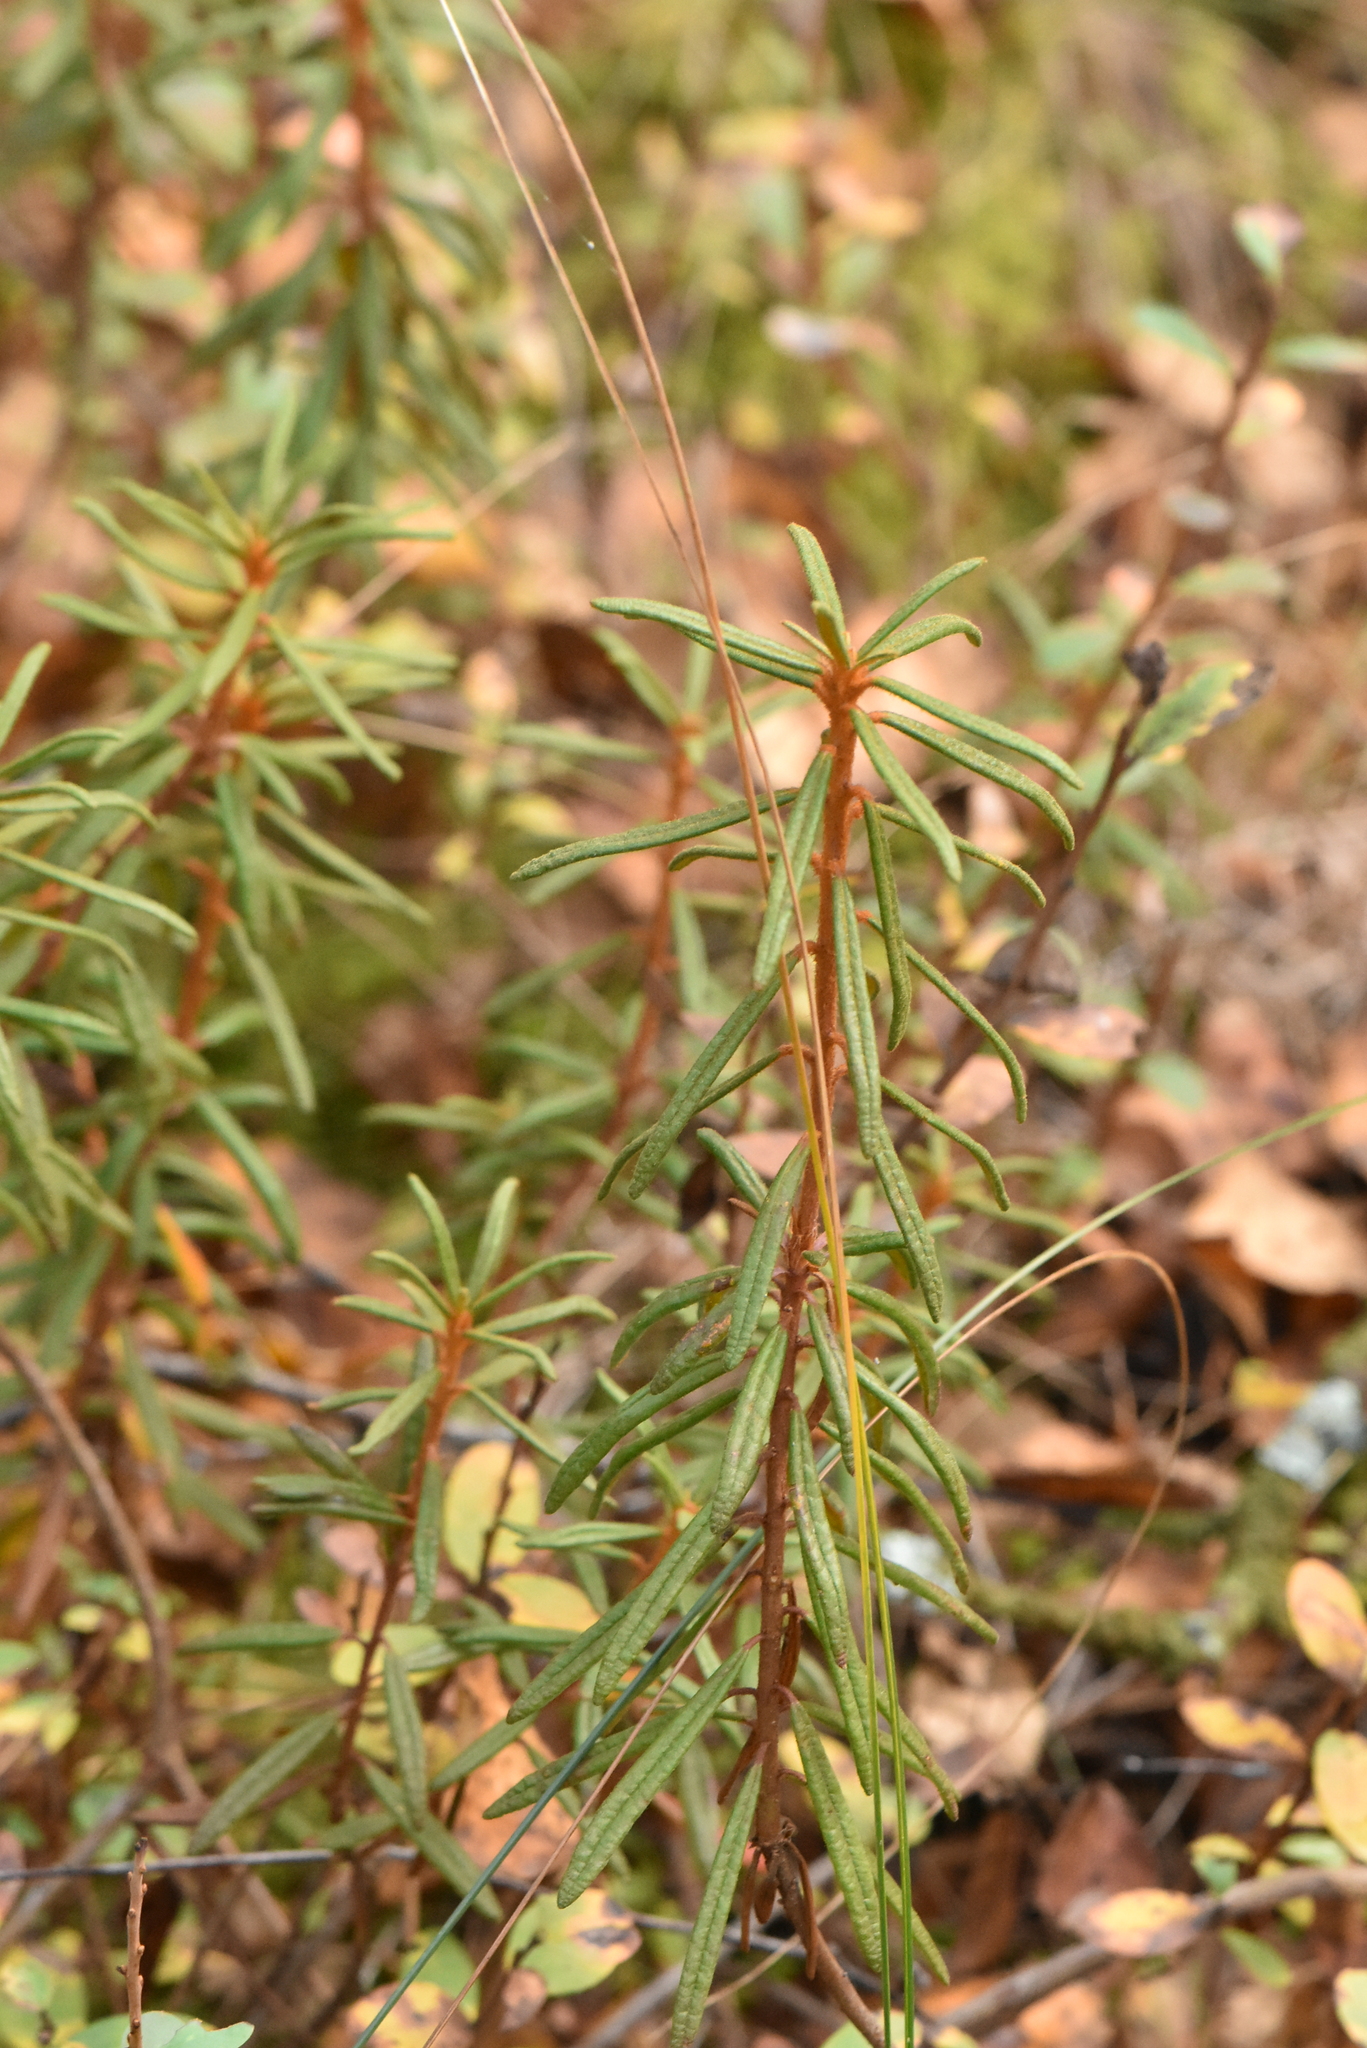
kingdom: Plantae
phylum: Tracheophyta
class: Magnoliopsida
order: Ericales
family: Ericaceae
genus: Rhododendron
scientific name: Rhododendron tomentosum
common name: Marsh labrador tea
